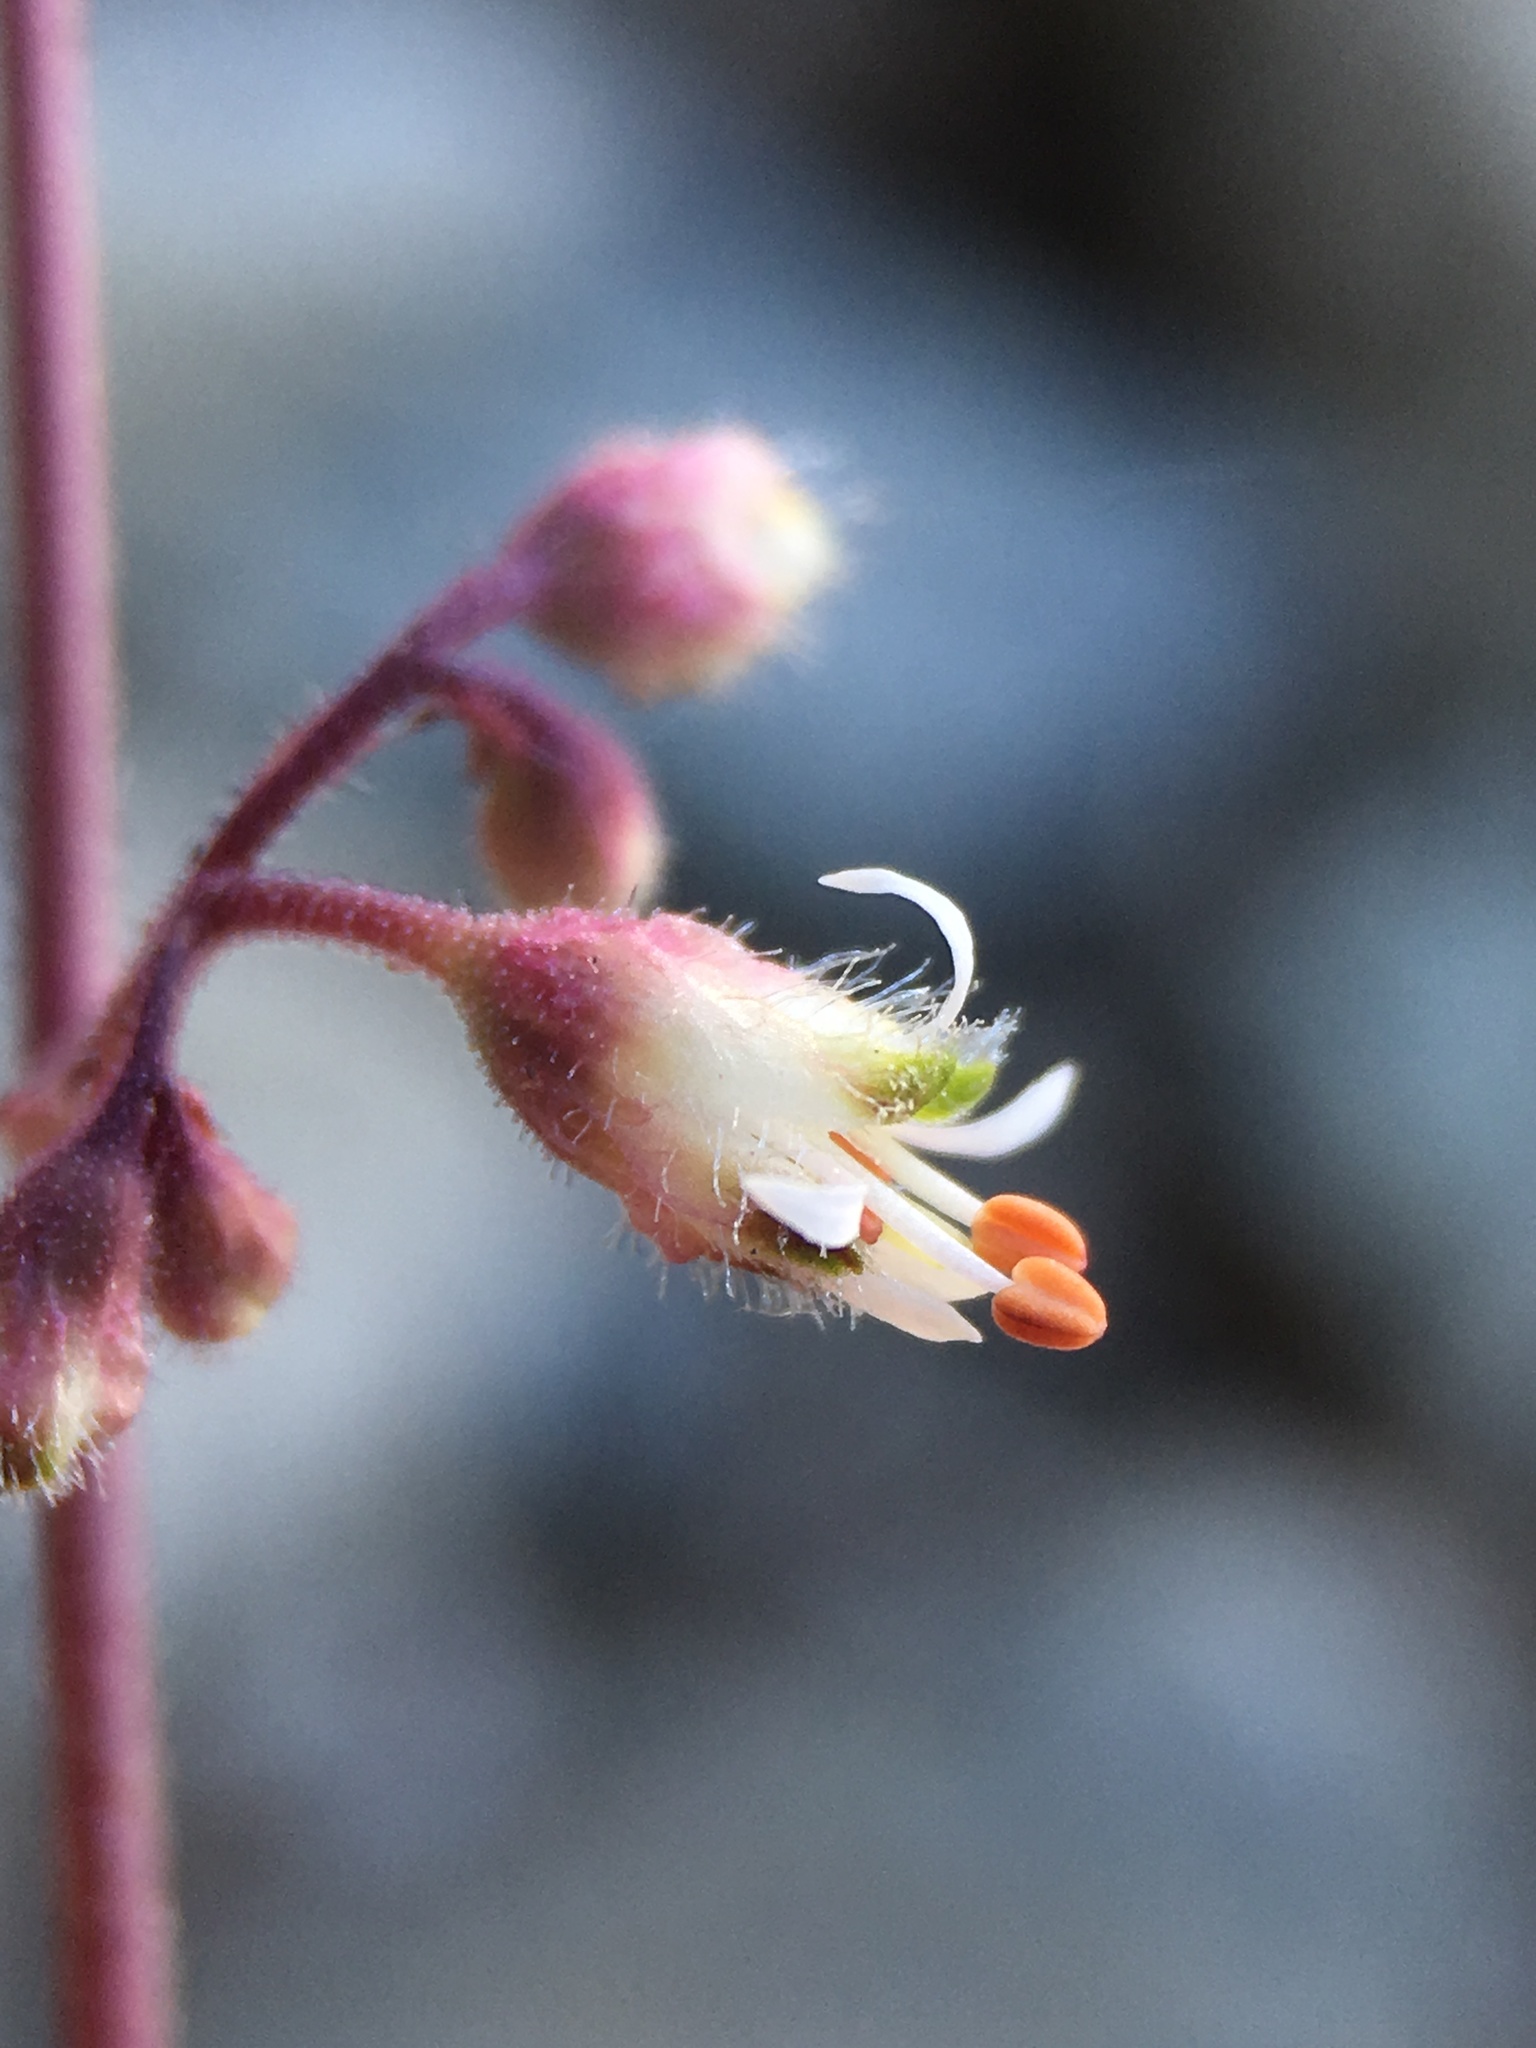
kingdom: Plantae
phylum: Tracheophyta
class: Magnoliopsida
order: Saxifragales
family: Saxifragaceae
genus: Heuchera
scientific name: Heuchera rubescens
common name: Jack-o'the-rocks
